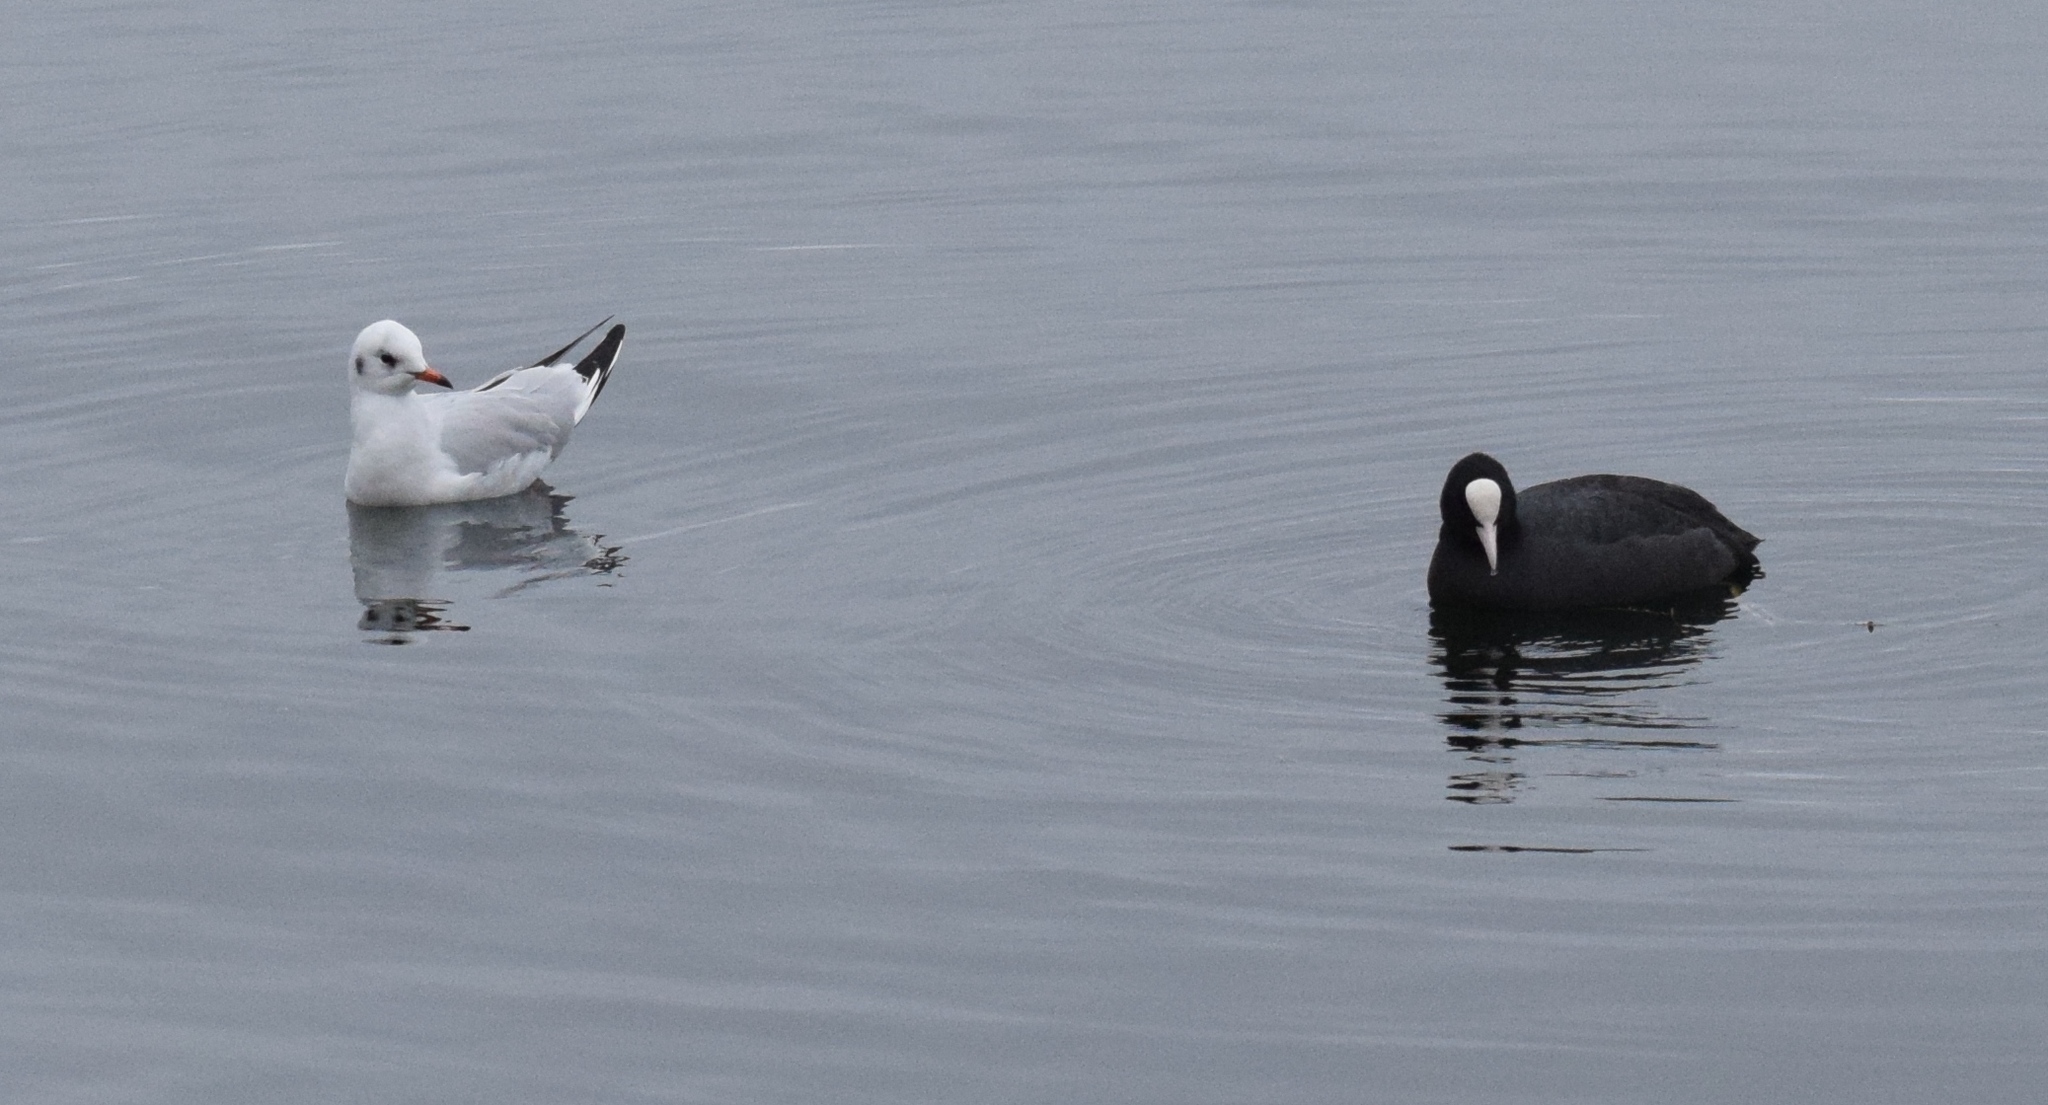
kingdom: Animalia
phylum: Chordata
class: Aves
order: Gruiformes
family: Rallidae
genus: Fulica
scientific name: Fulica atra
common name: Eurasian coot
